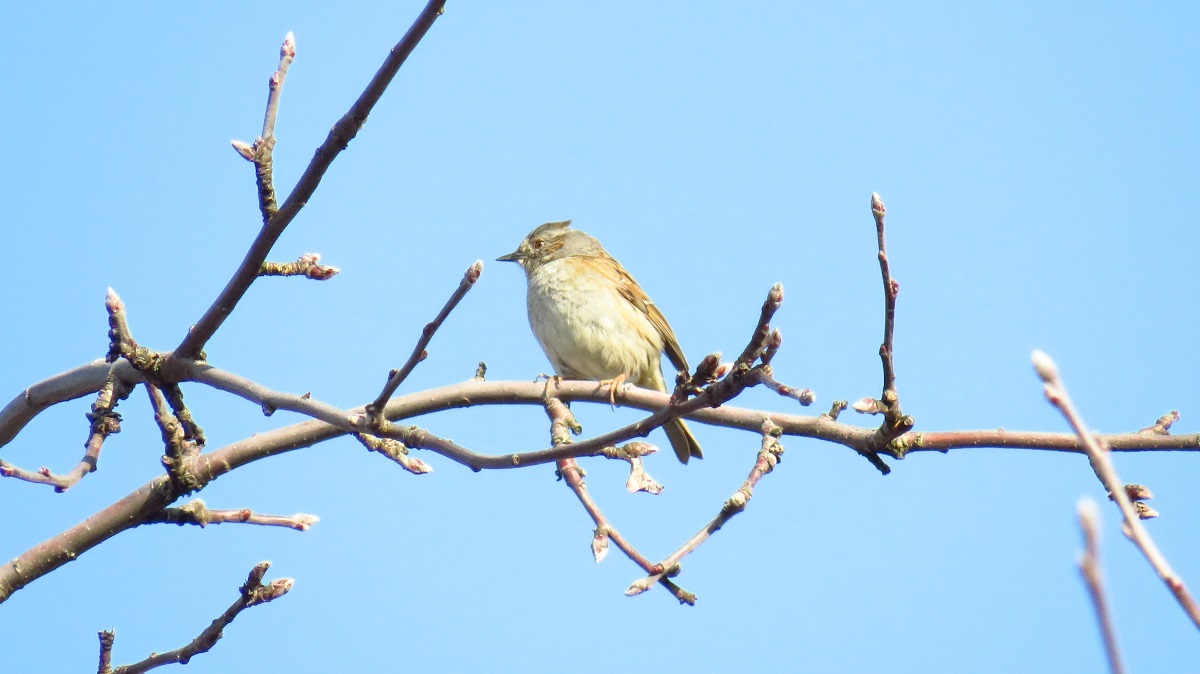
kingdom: Animalia
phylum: Chordata
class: Aves
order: Passeriformes
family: Prunellidae
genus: Prunella
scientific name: Prunella modularis
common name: Dunnock
